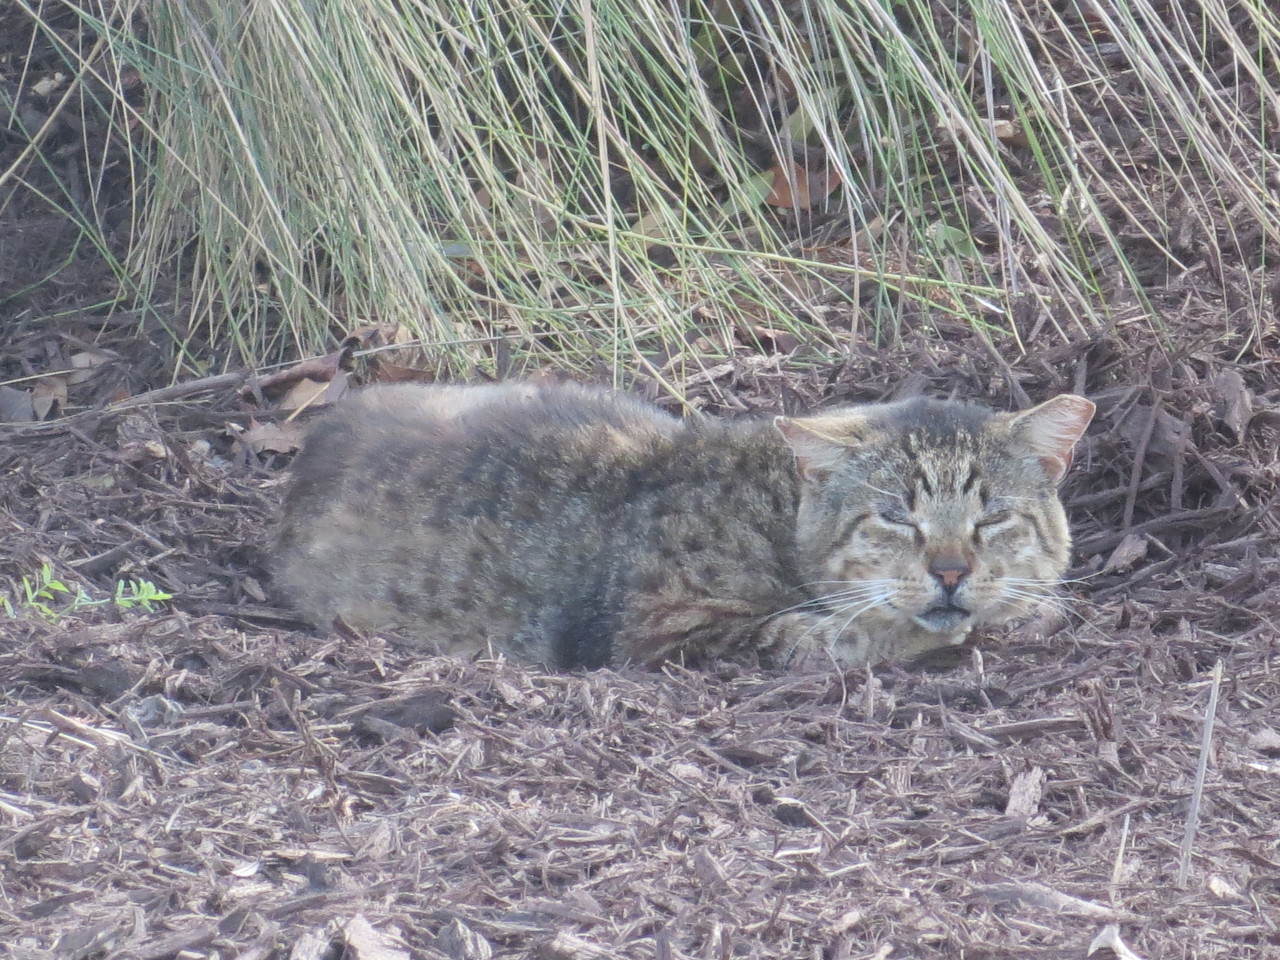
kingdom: Animalia
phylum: Chordata
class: Mammalia
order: Carnivora
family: Felidae
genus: Felis
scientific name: Felis catus
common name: Domestic cat
